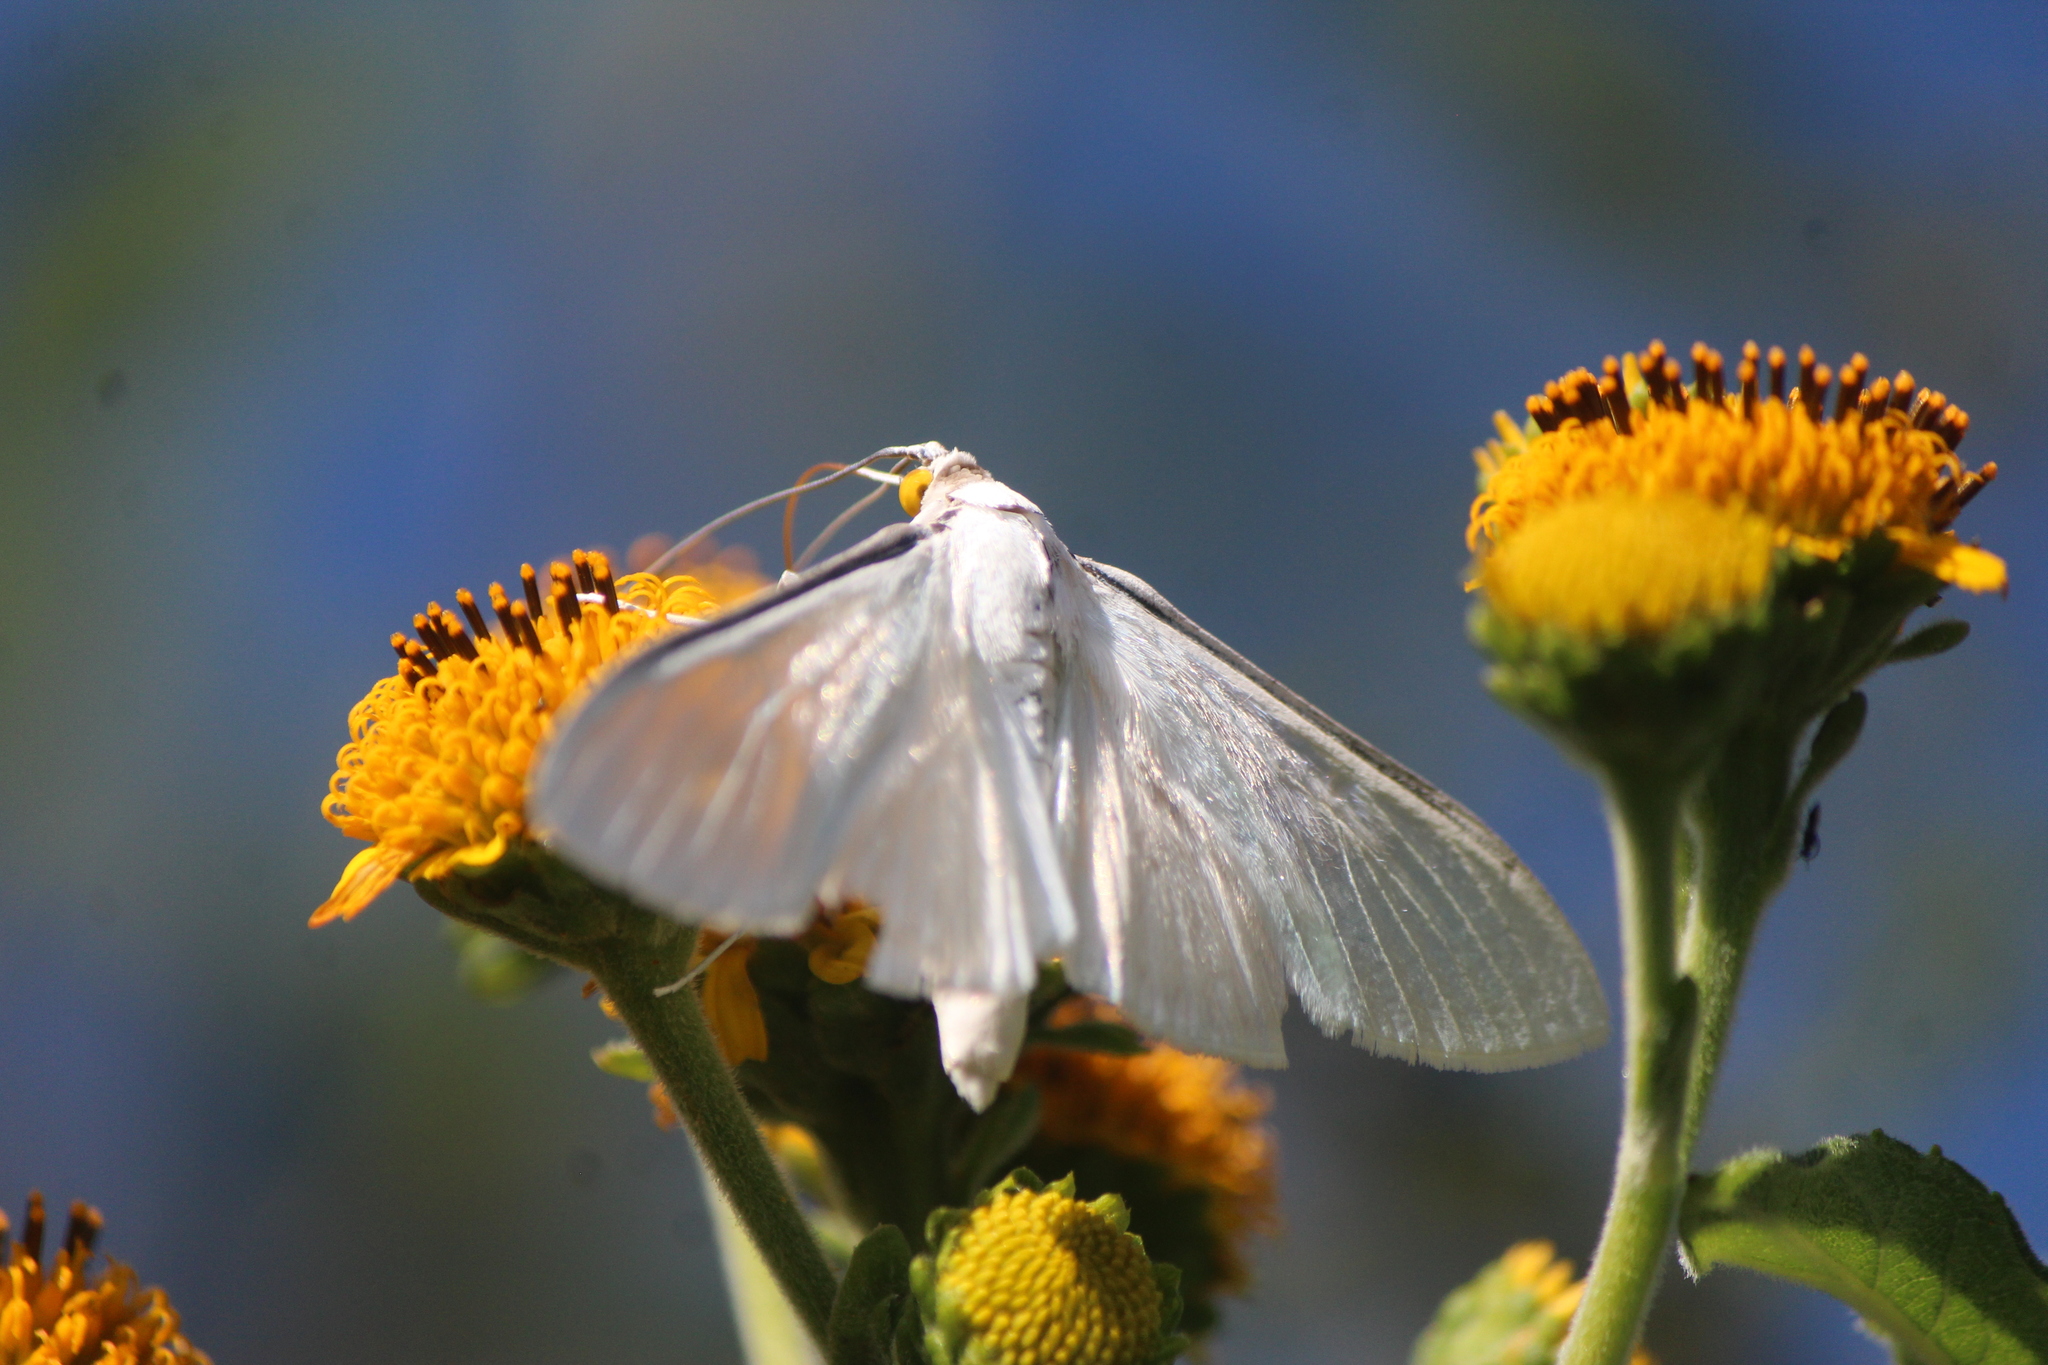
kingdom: Animalia
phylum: Arthropoda
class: Insecta
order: Lepidoptera
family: Crambidae
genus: Palpita
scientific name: Palpita flegia
